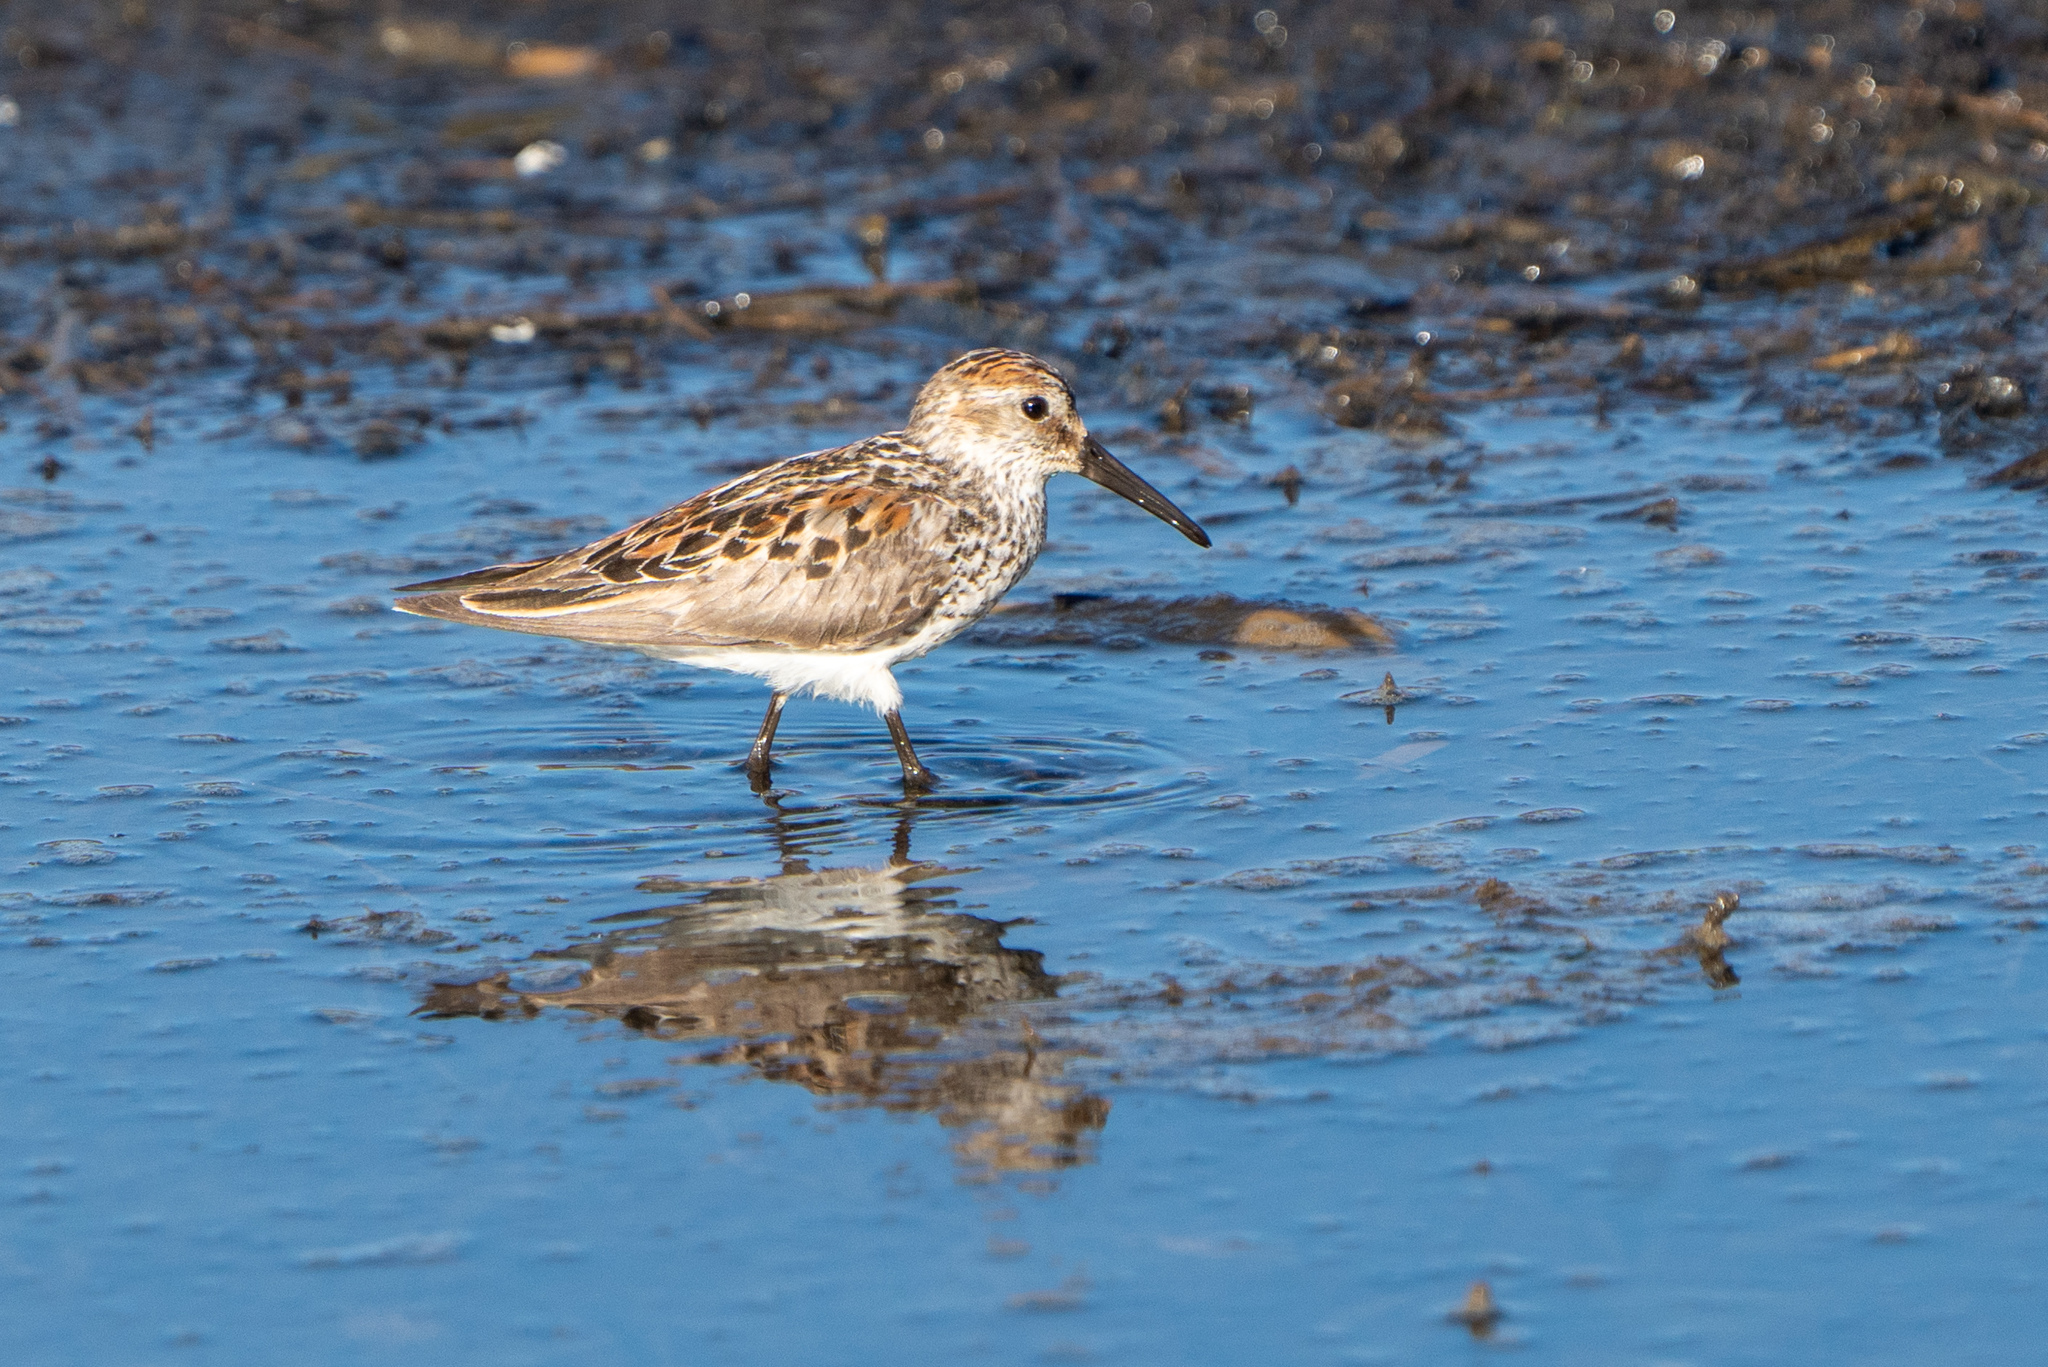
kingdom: Animalia
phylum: Chordata
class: Aves
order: Charadriiformes
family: Scolopacidae
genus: Calidris
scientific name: Calidris mauri
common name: Western sandpiper
